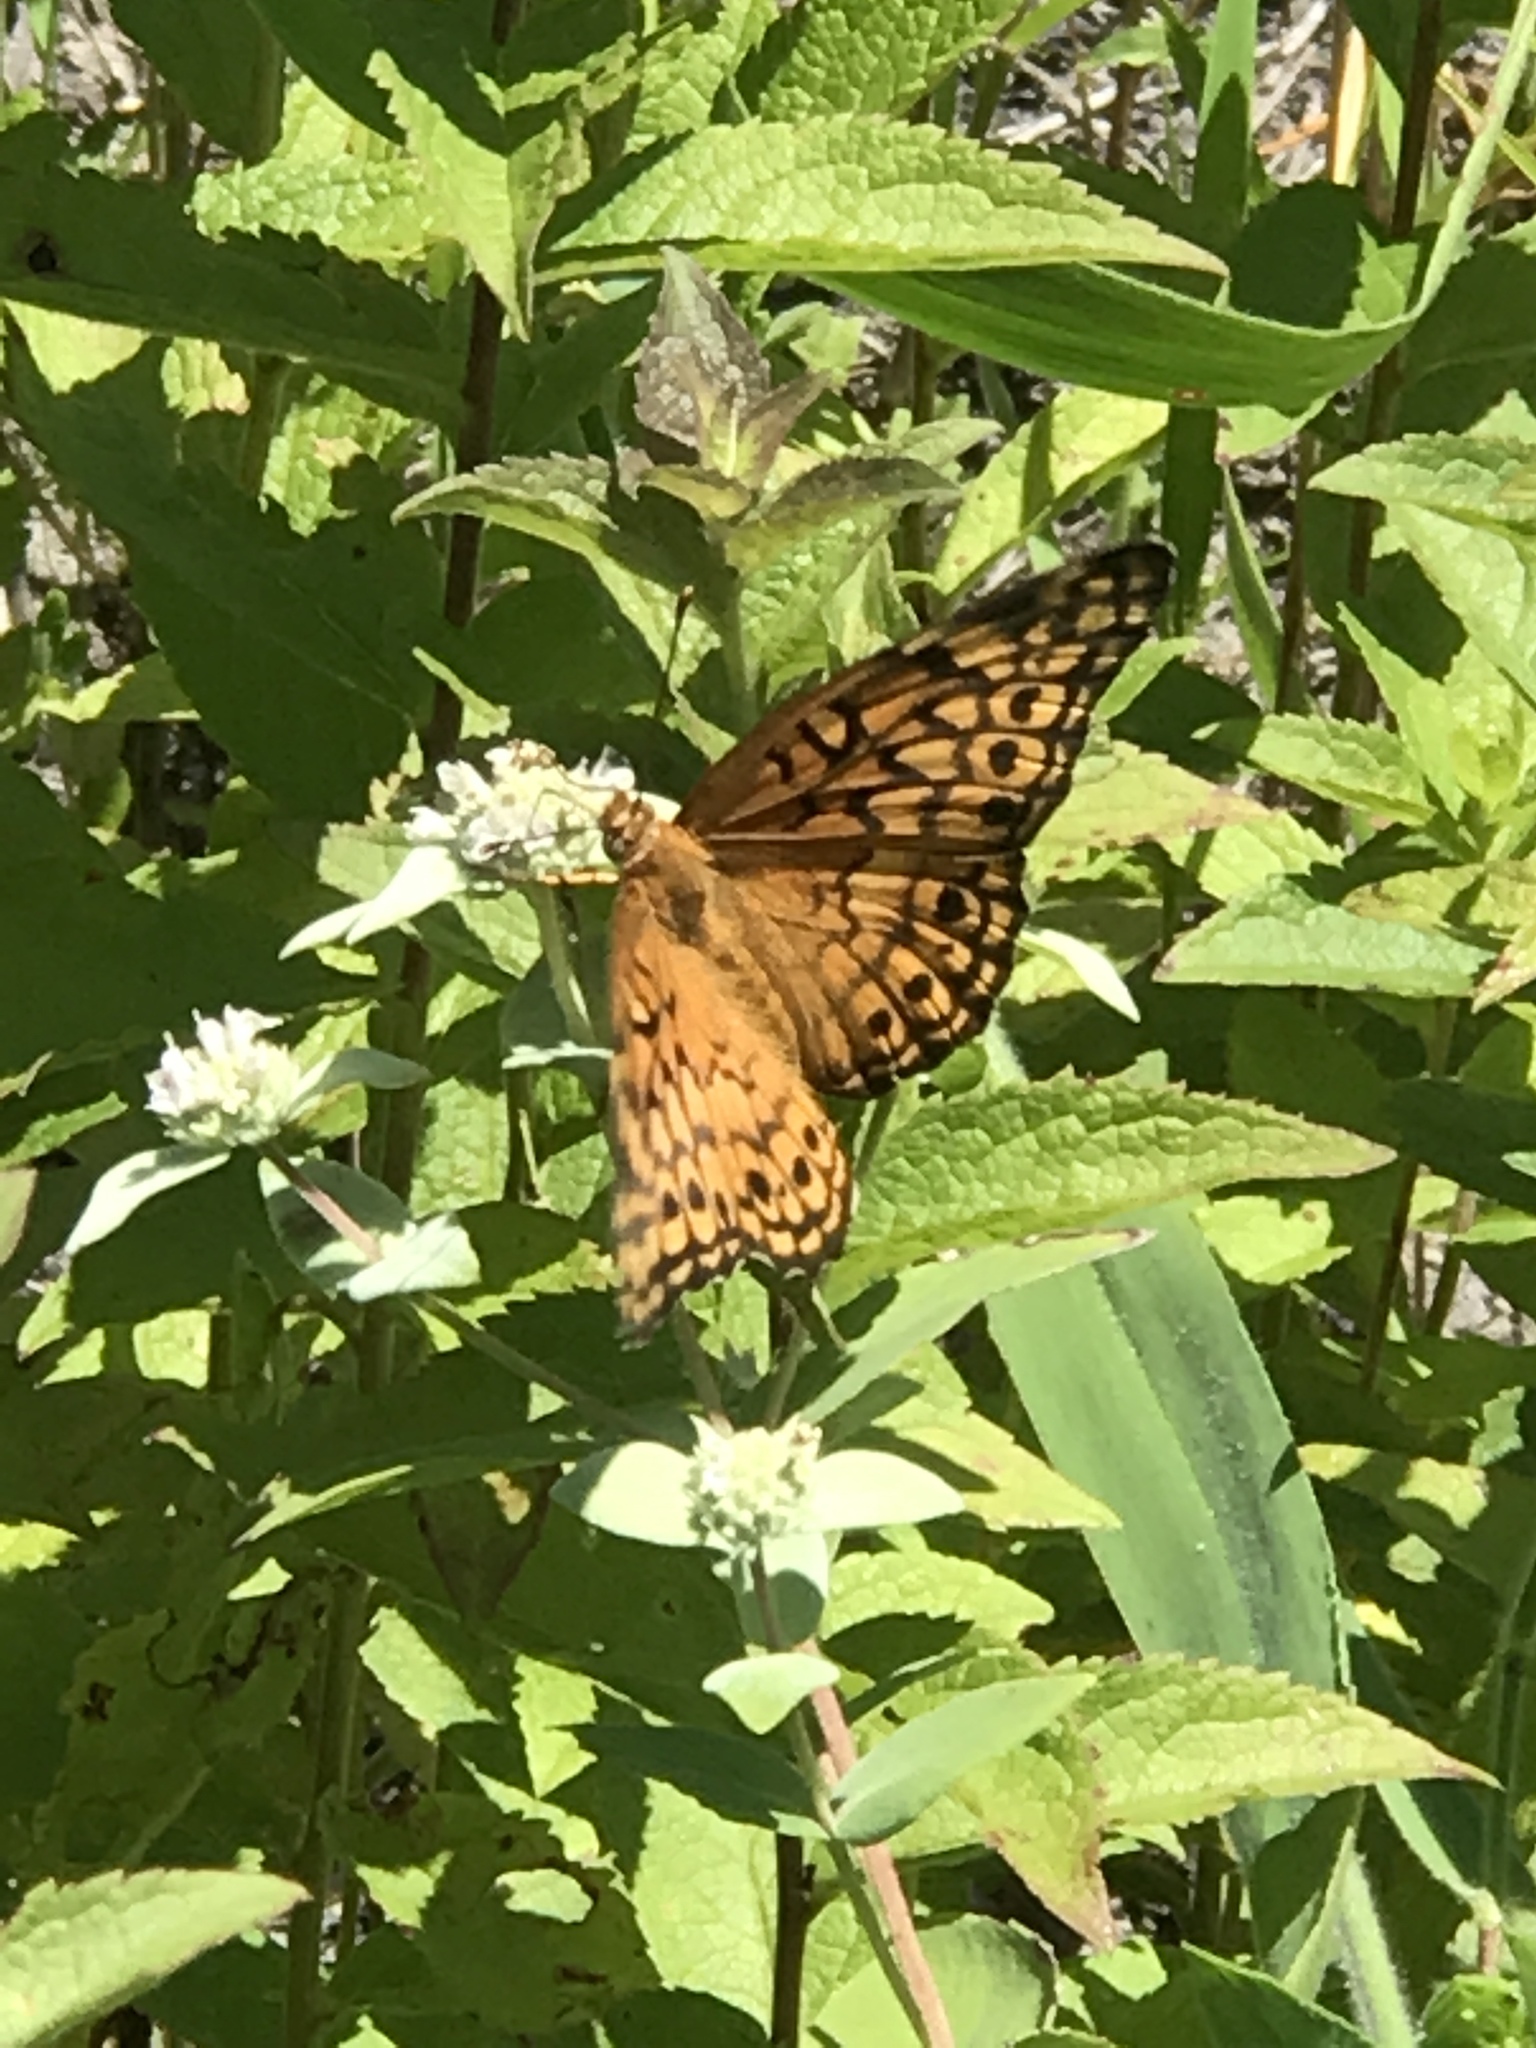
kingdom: Animalia
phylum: Arthropoda
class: Insecta
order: Lepidoptera
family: Nymphalidae
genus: Euptoieta
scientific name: Euptoieta claudia
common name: Variegated fritillary
